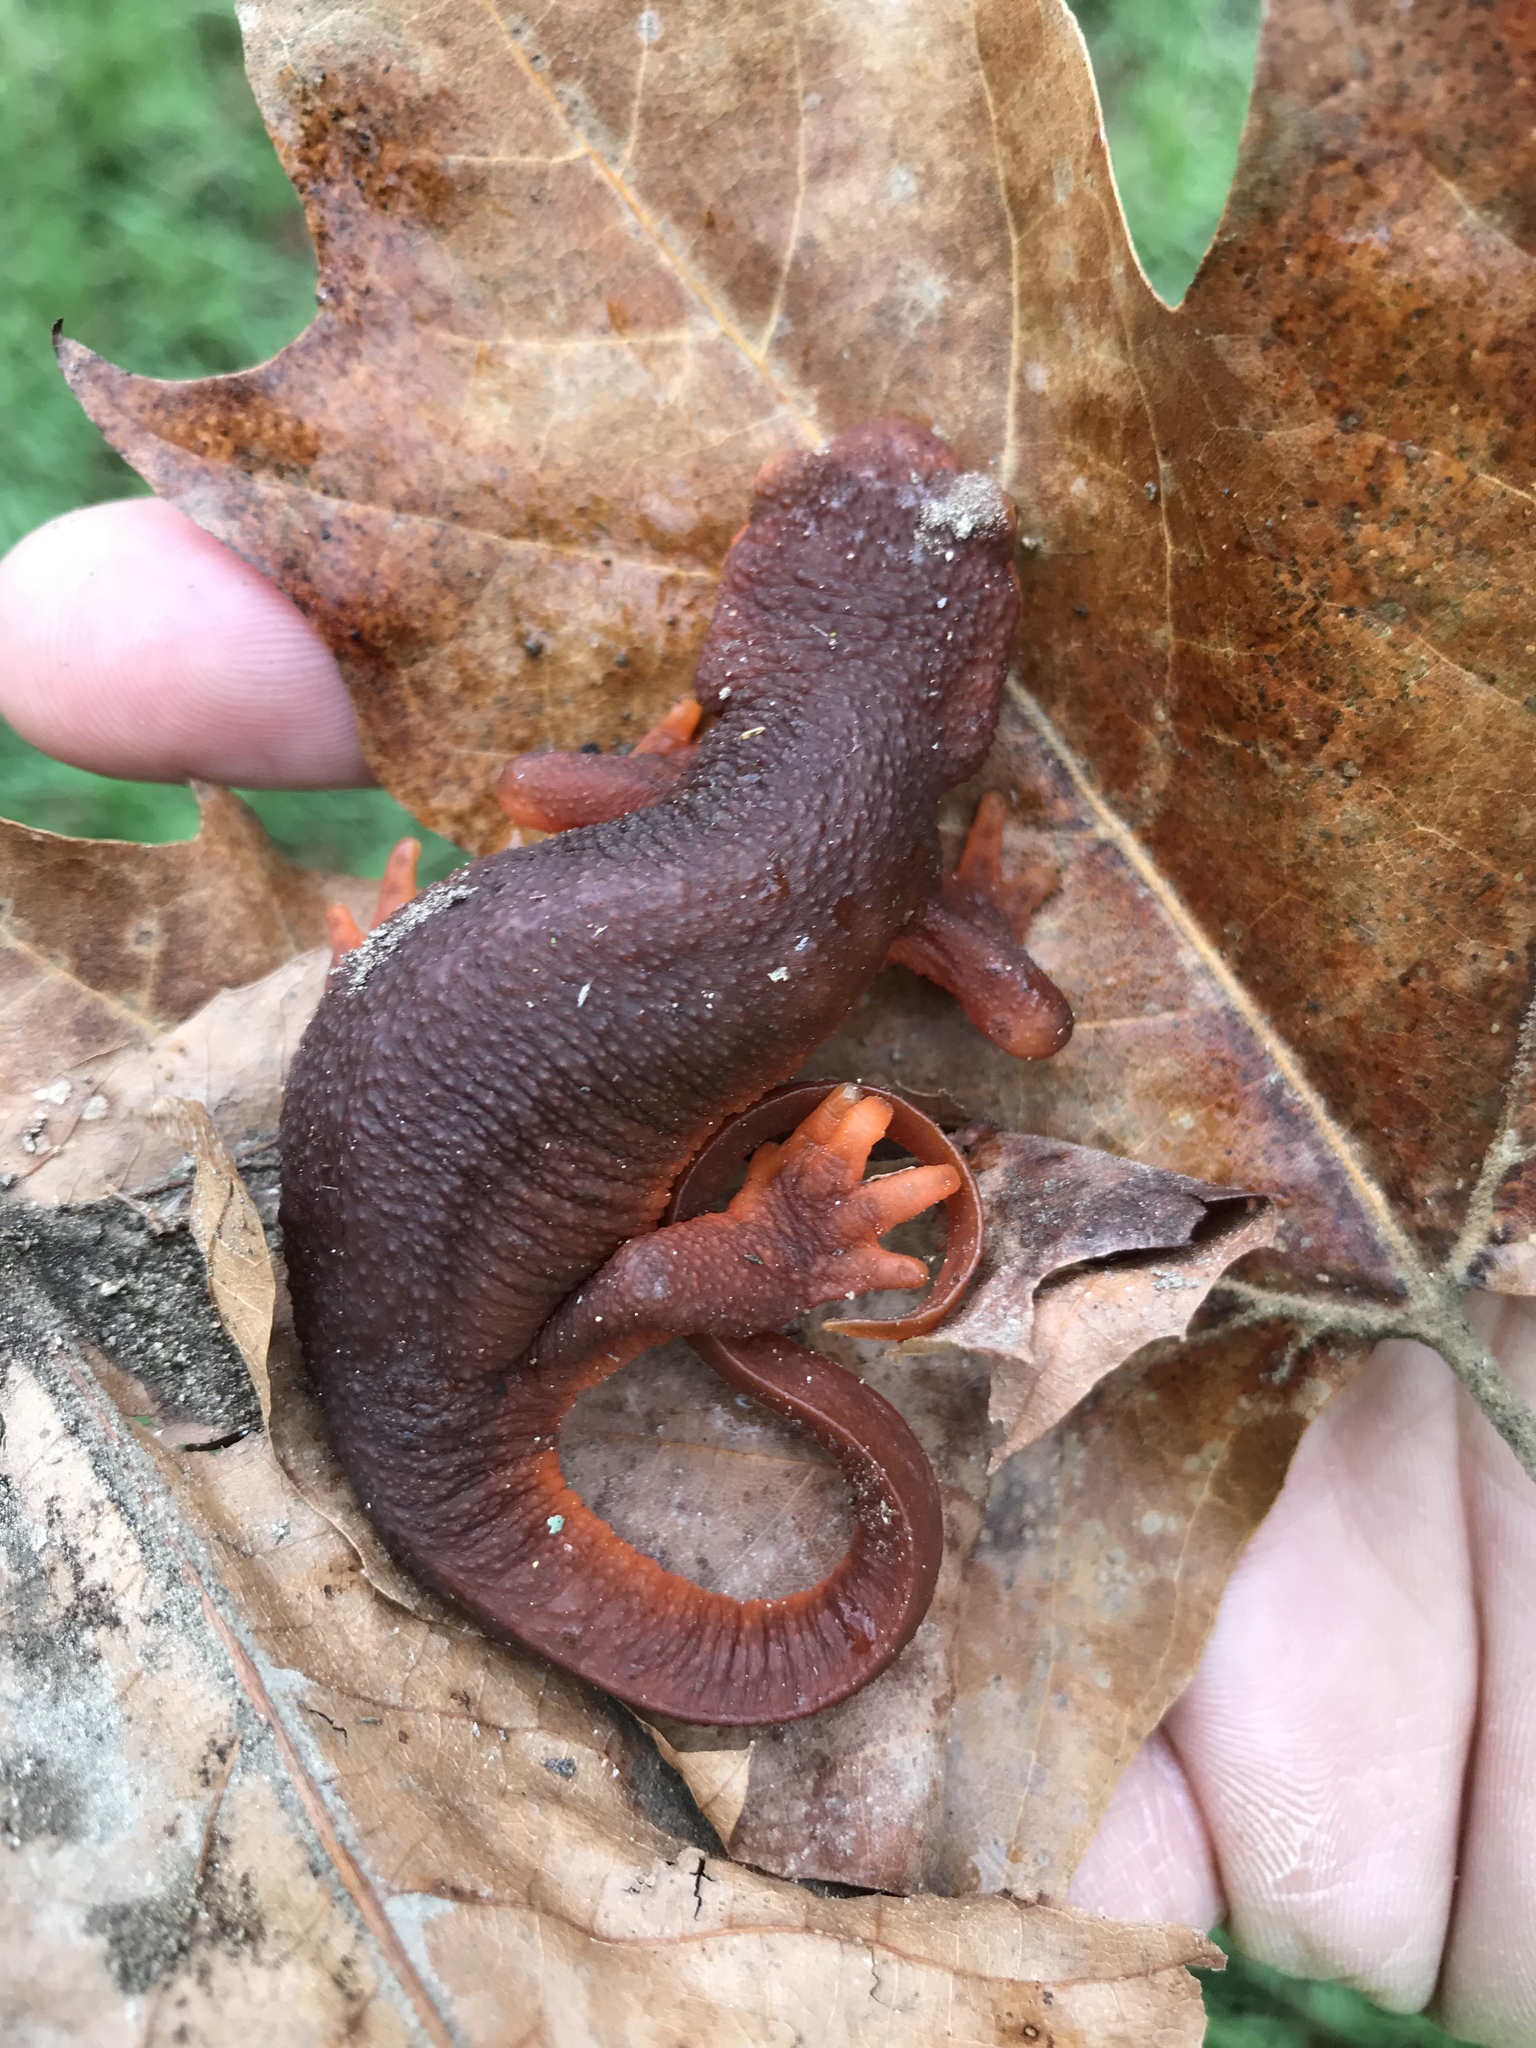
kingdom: Animalia
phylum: Chordata
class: Amphibia
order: Caudata
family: Salamandridae
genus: Taricha
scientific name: Taricha torosa
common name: California newt
